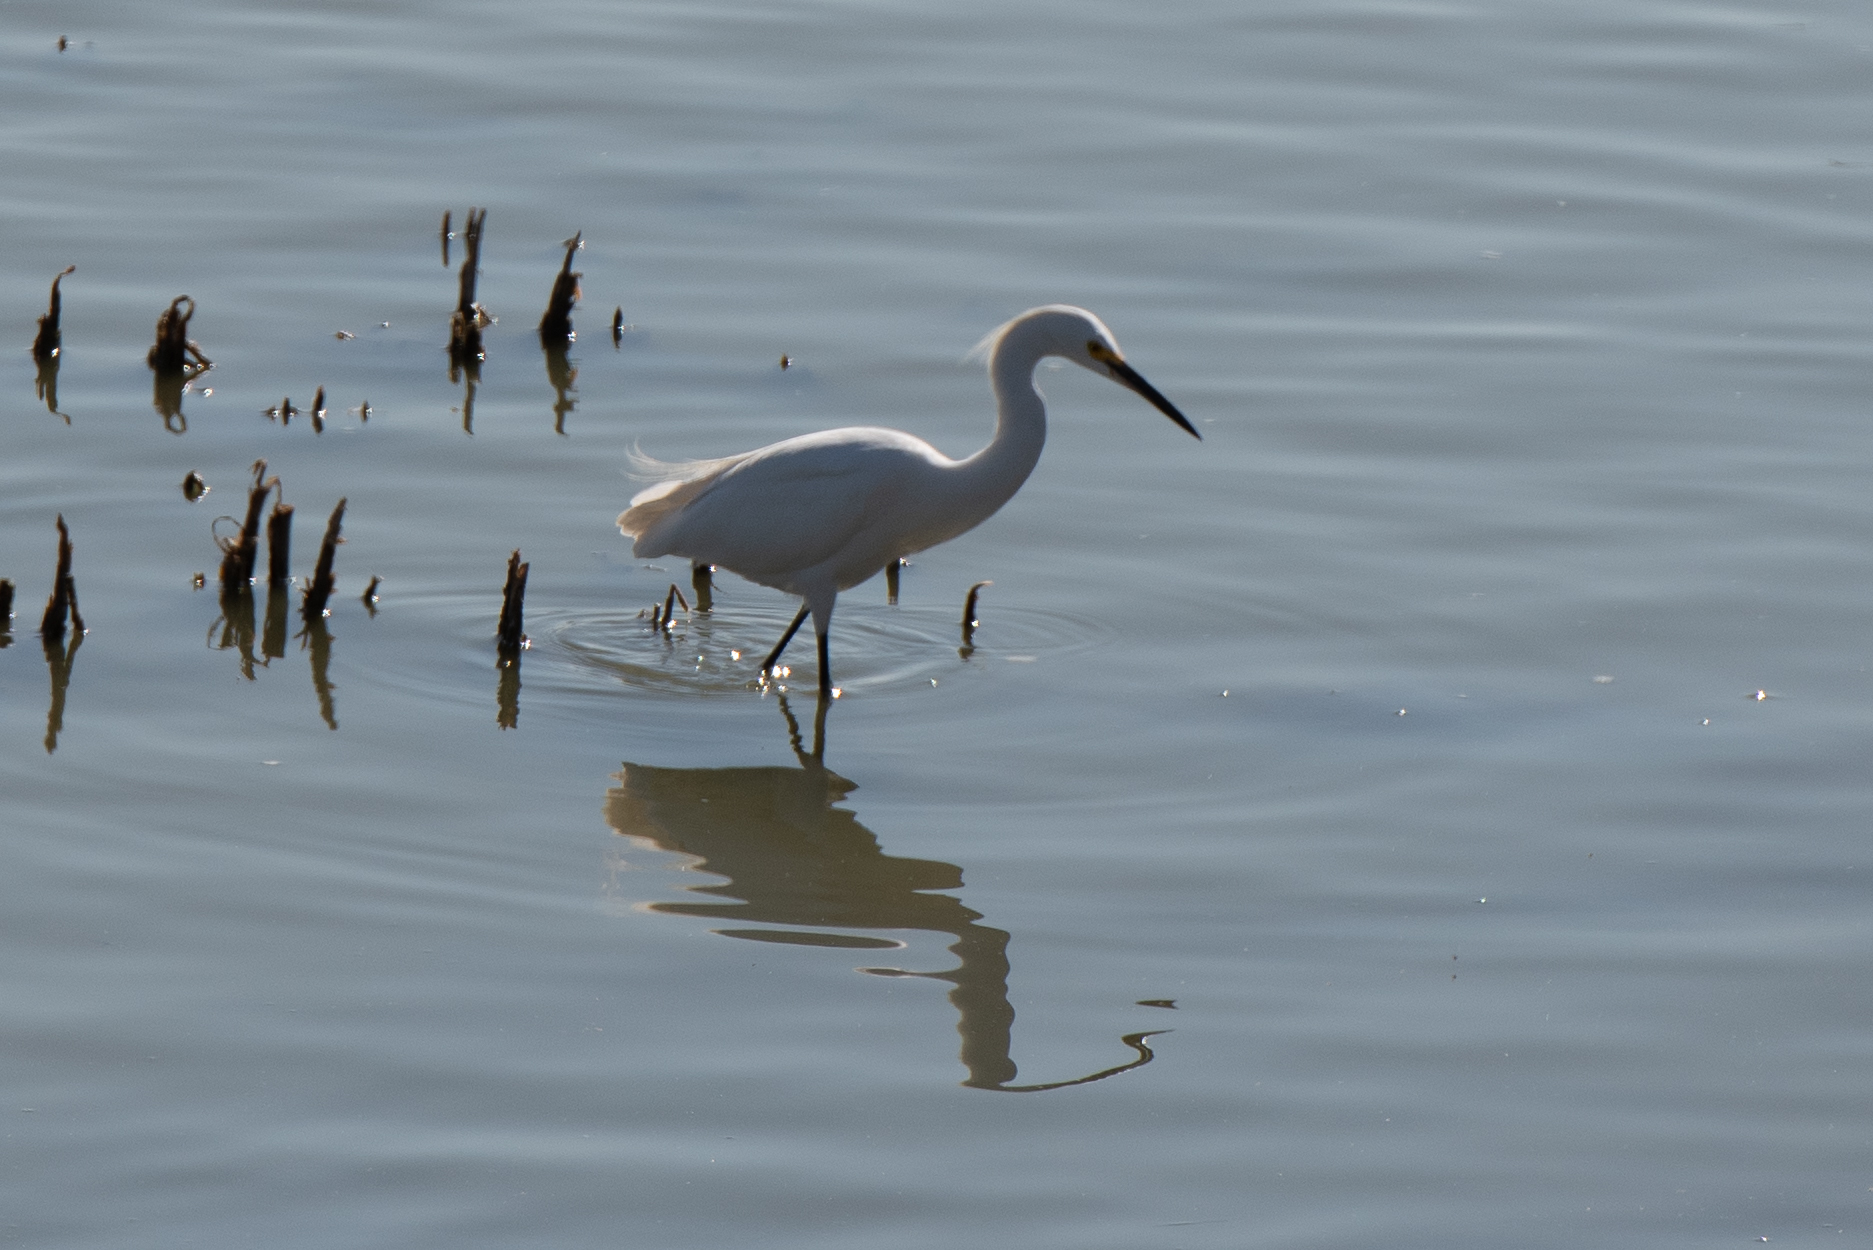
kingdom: Animalia
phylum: Chordata
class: Aves
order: Pelecaniformes
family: Ardeidae
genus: Egretta
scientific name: Egretta thula
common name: Snowy egret
